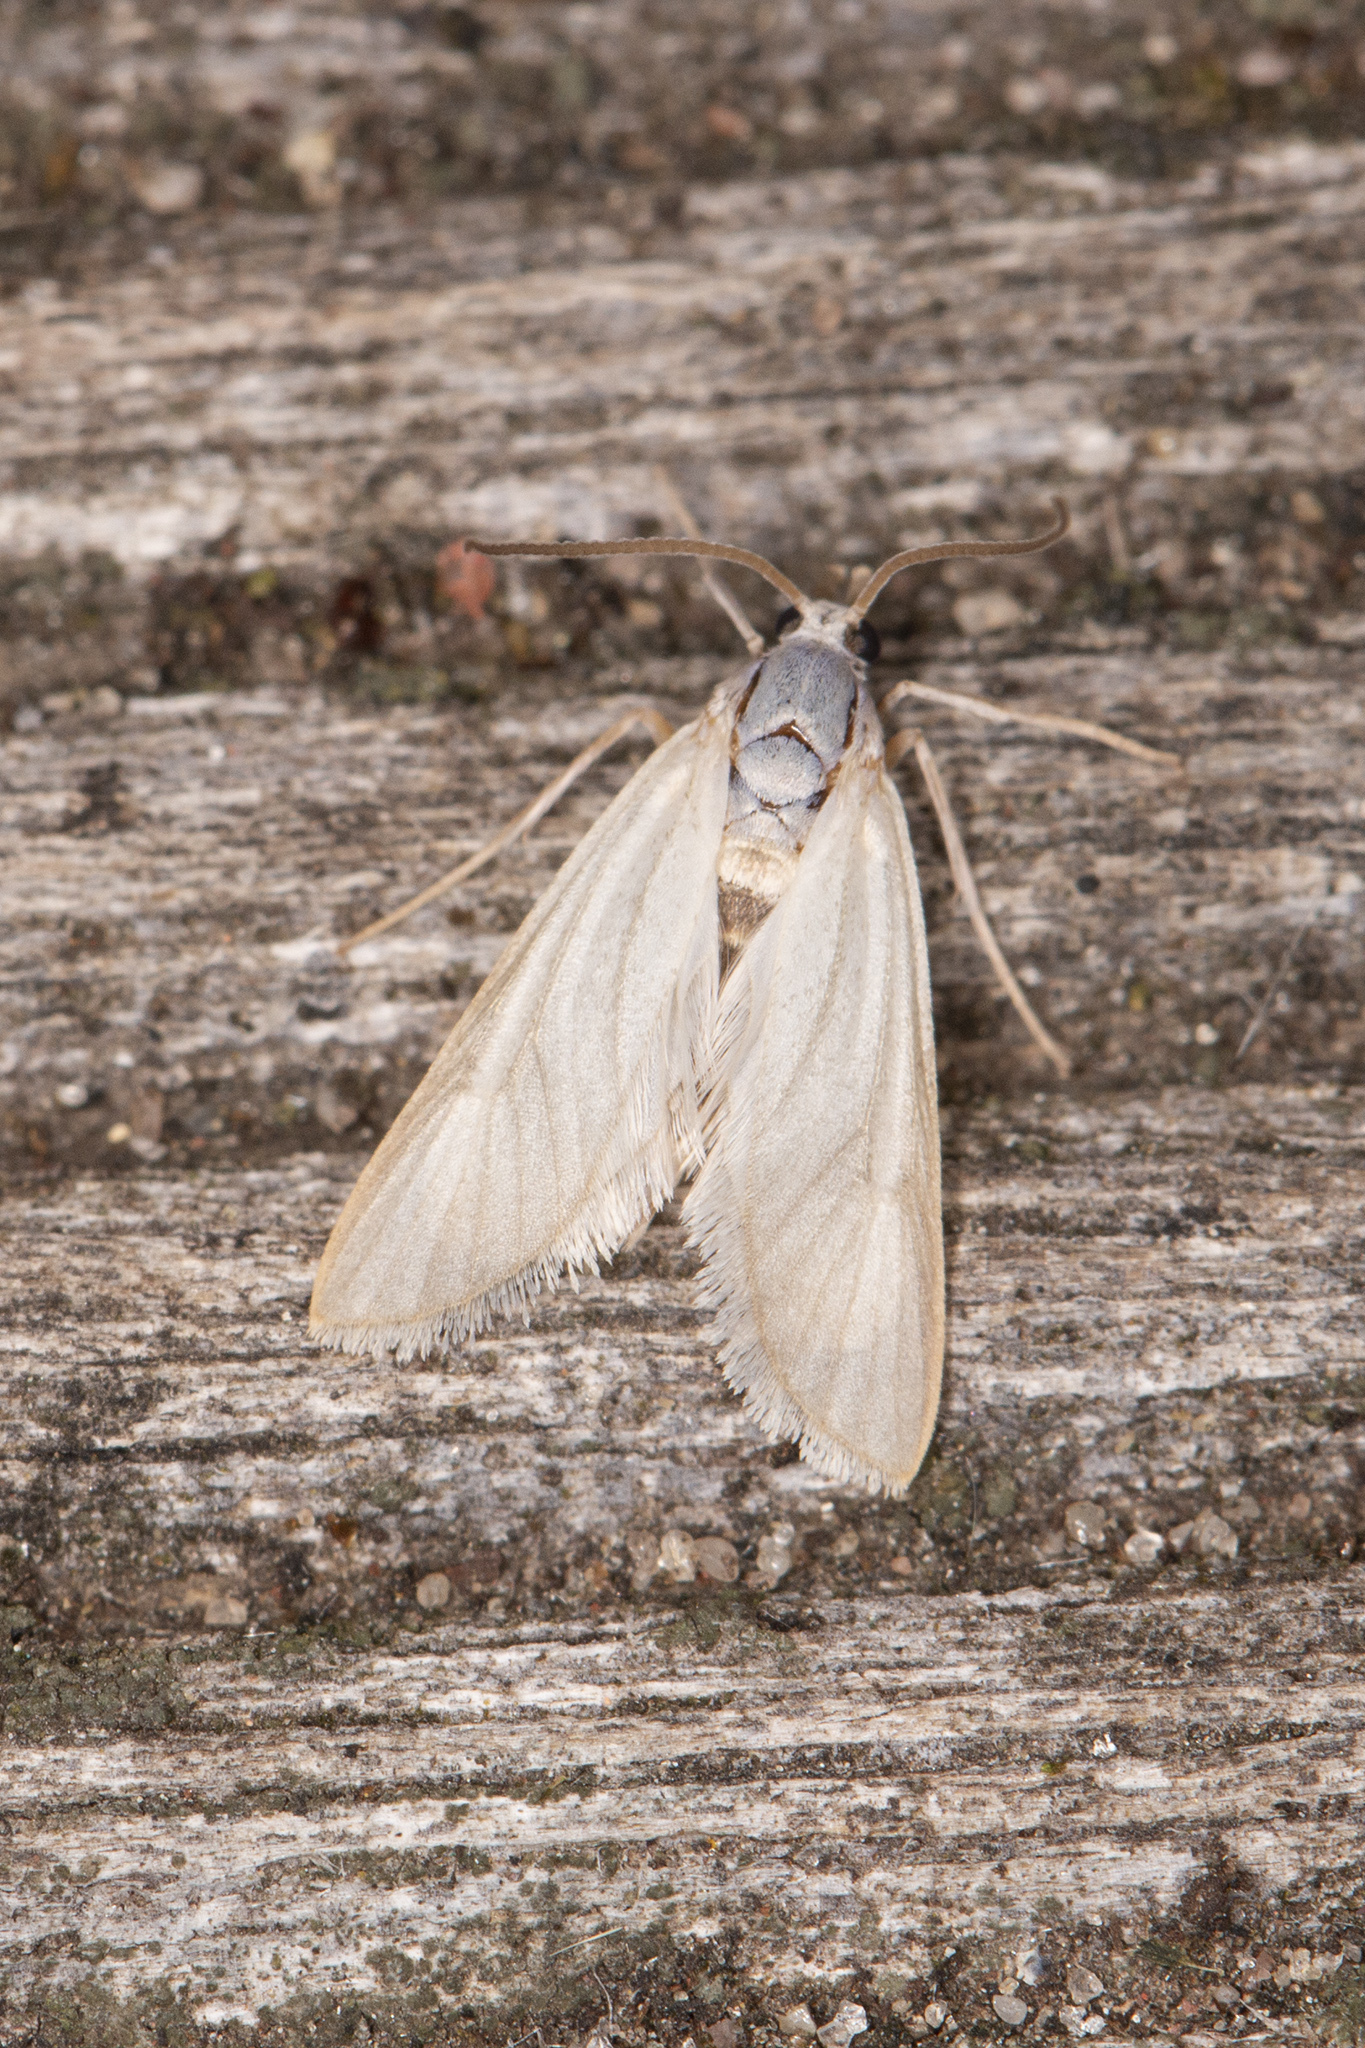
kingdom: Animalia
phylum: Arthropoda
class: Insecta
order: Lepidoptera
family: Crambidae
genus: Acentria
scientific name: Acentria ephemerella
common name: European water moth
